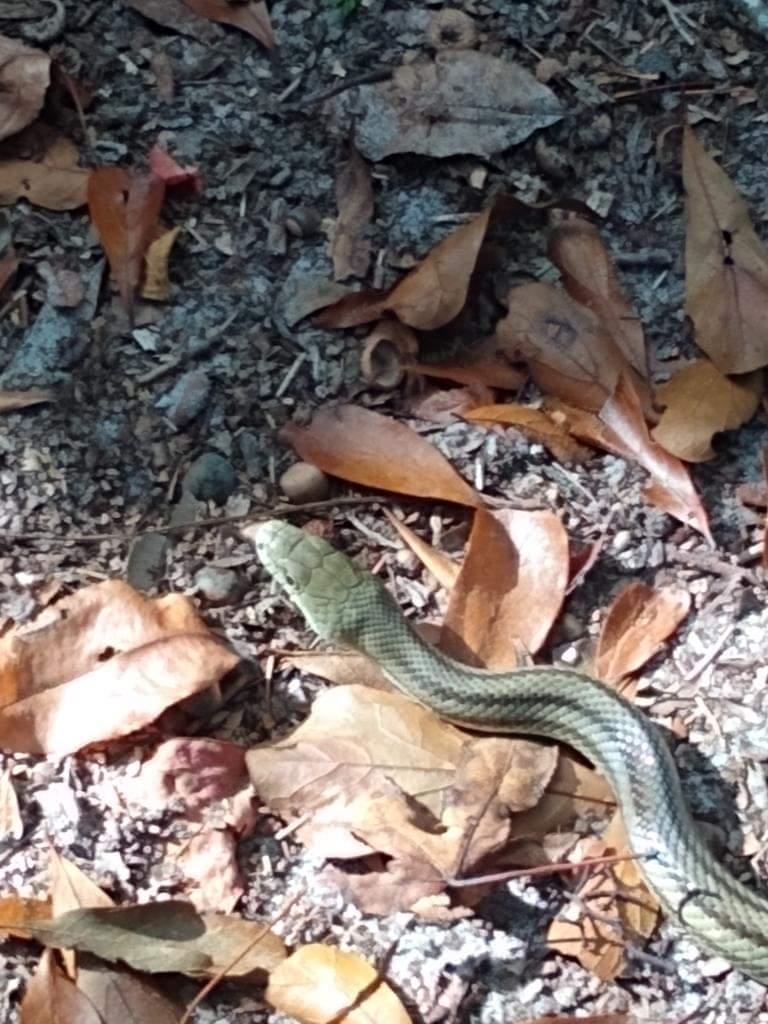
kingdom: Animalia
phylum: Chordata
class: Squamata
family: Colubridae
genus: Pantherophis
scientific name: Pantherophis alleghaniensis
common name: Eastern rat snake
